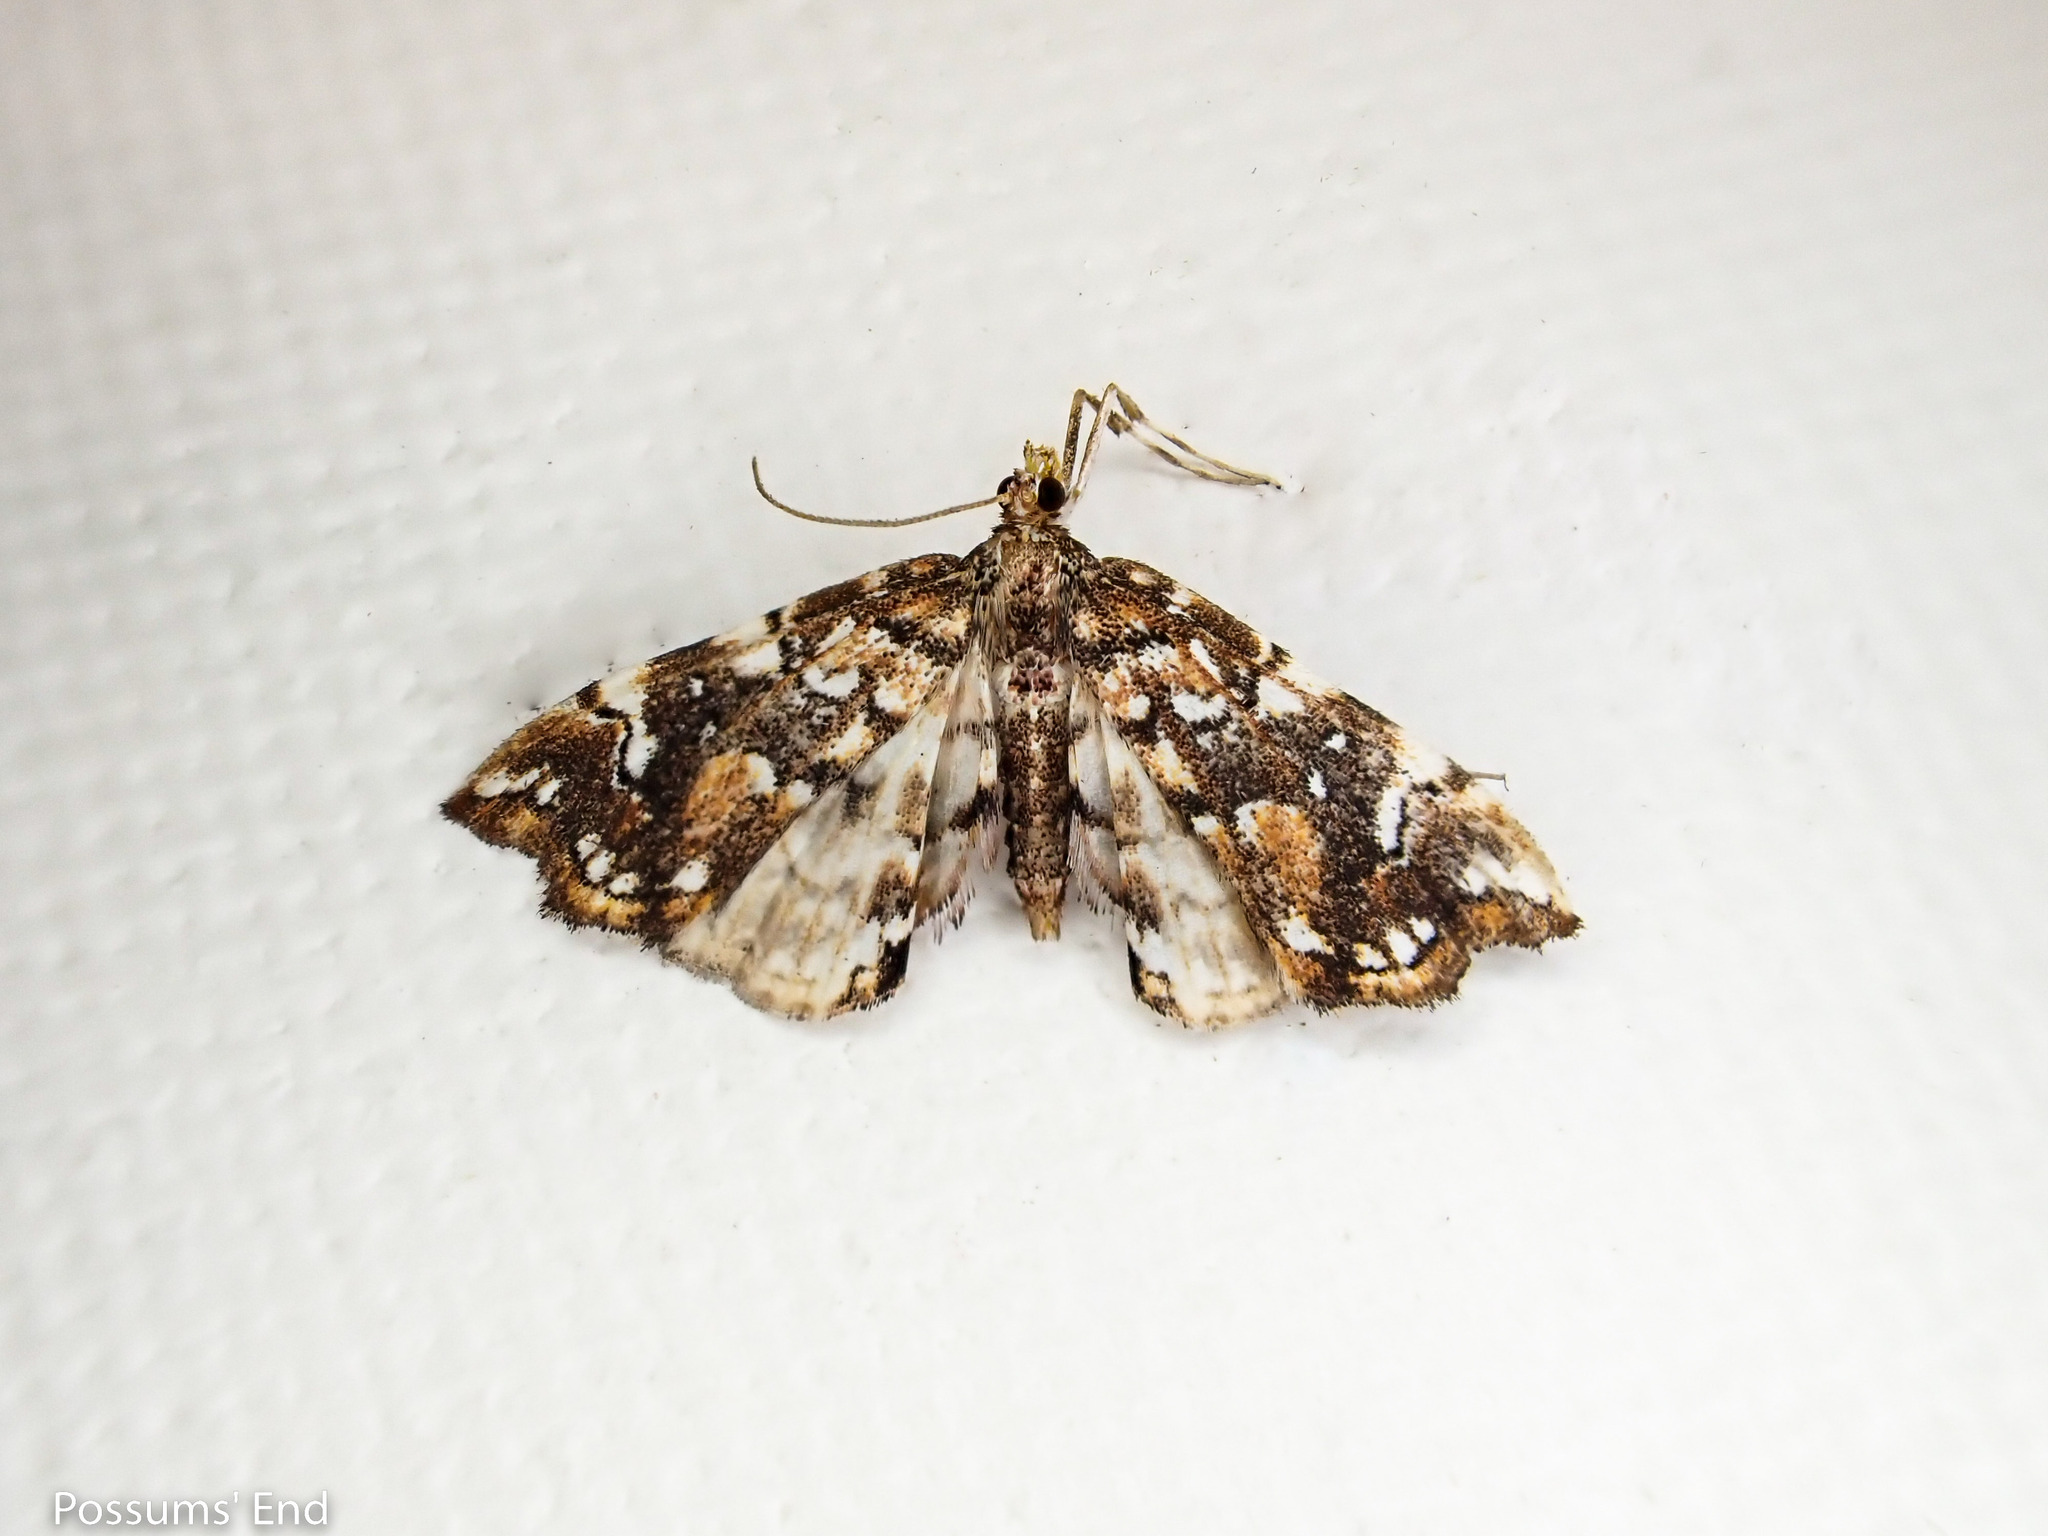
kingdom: Animalia
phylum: Arthropoda
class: Insecta
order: Lepidoptera
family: Pyralidae
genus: Musotima
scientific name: Musotima nitidalis
